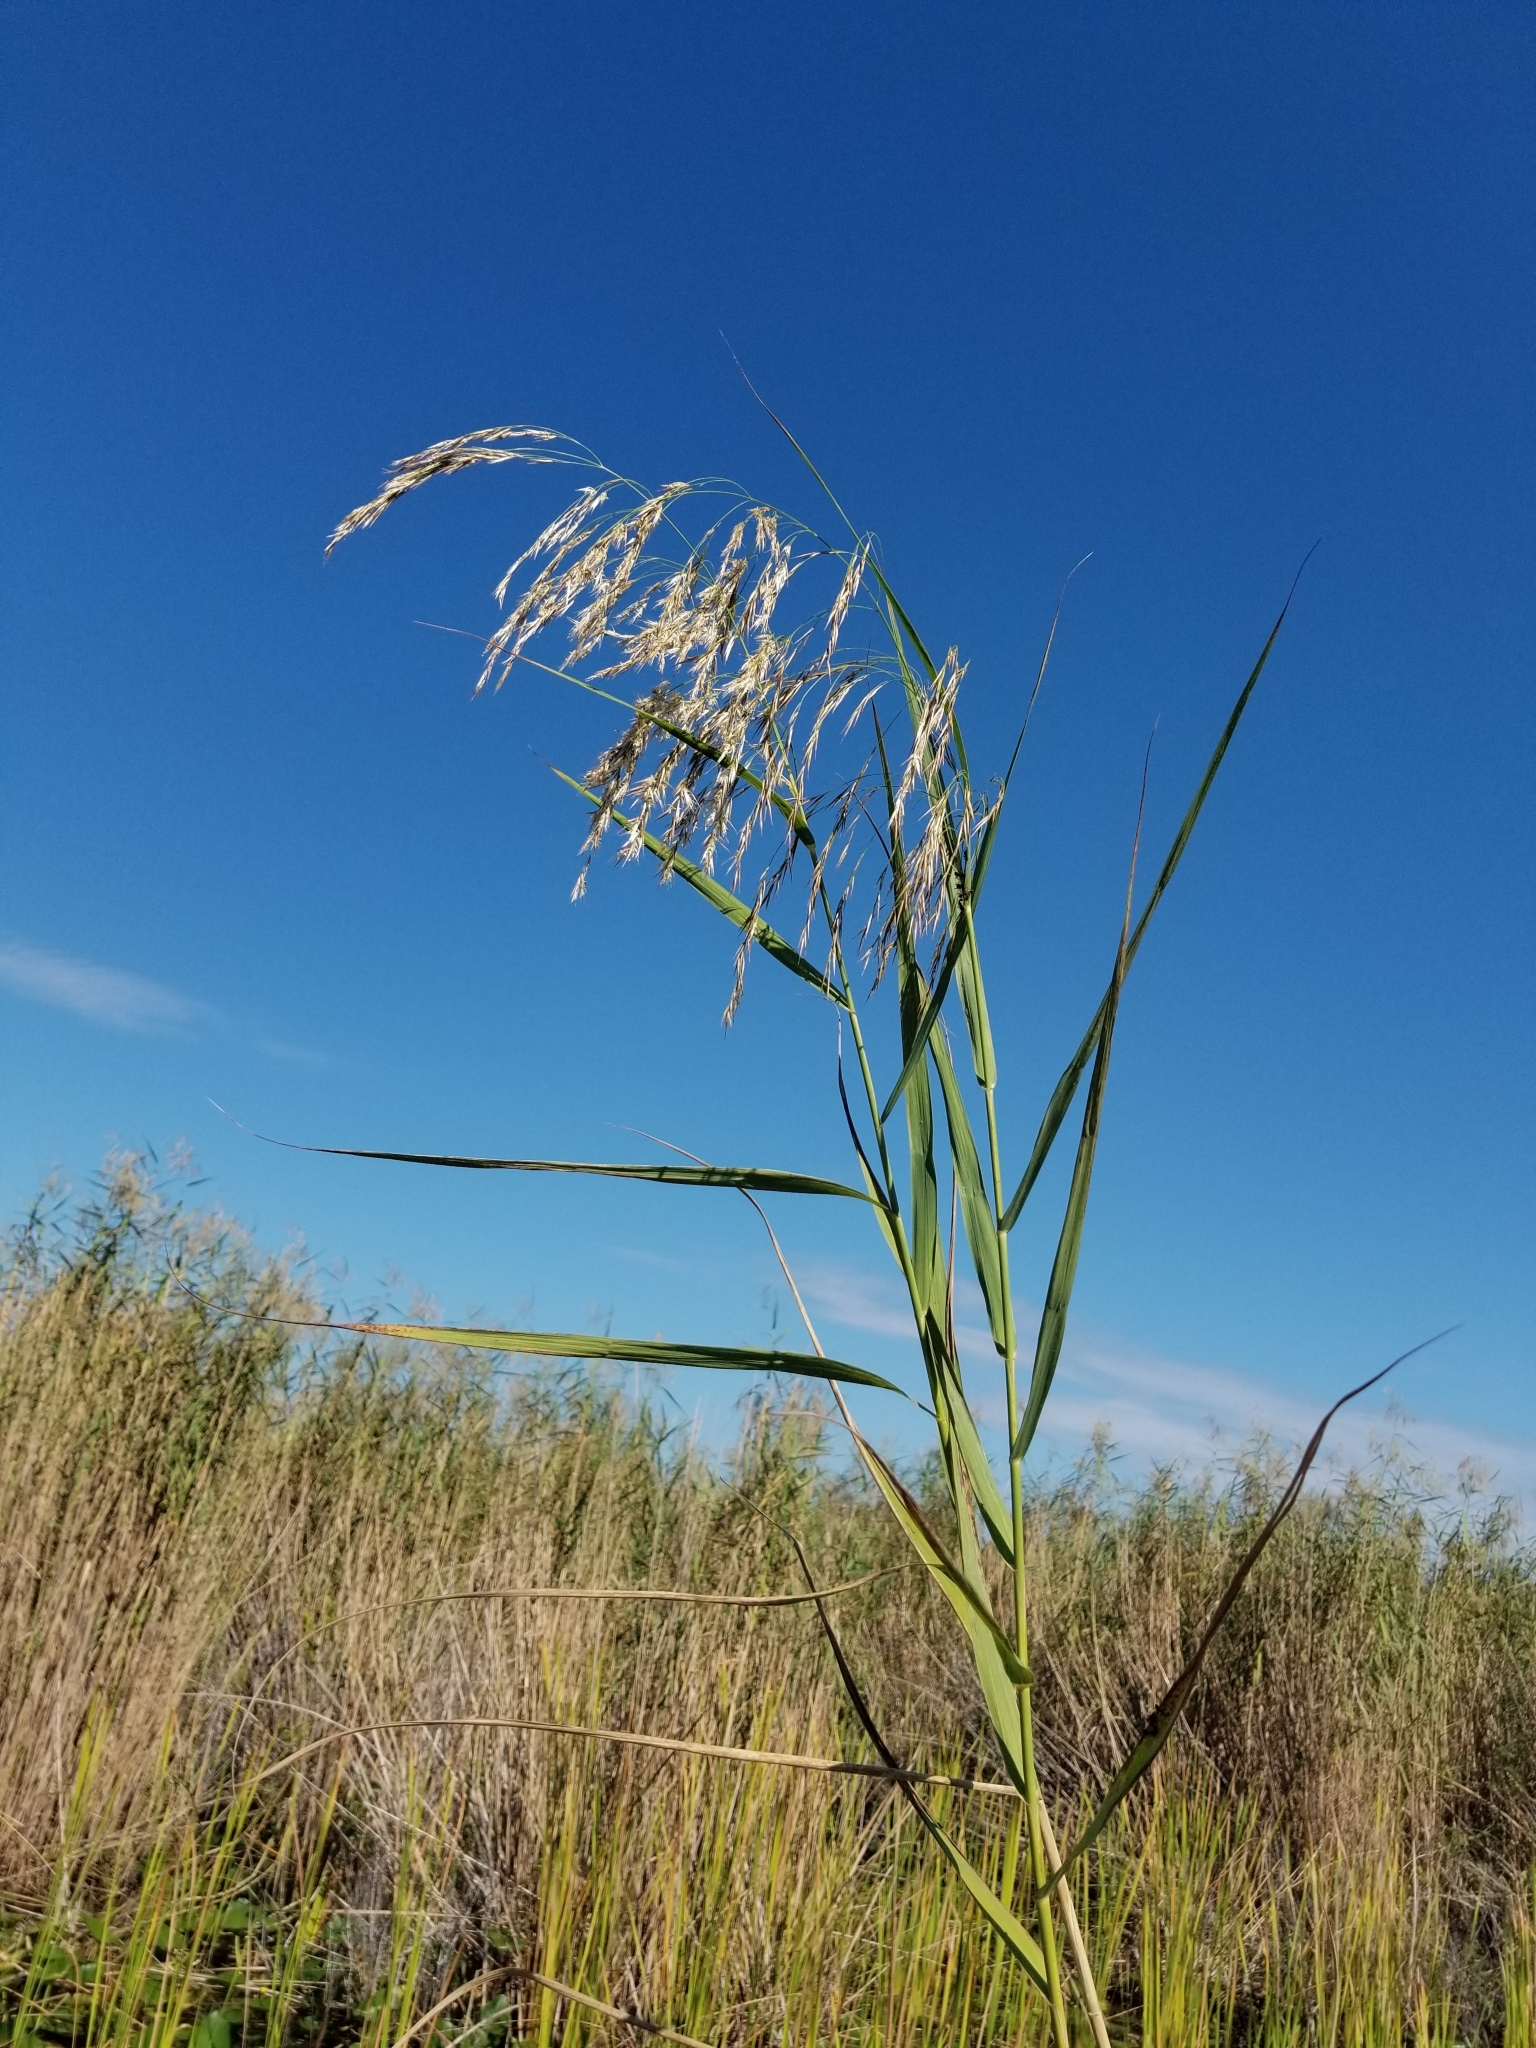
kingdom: Plantae
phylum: Tracheophyta
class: Liliopsida
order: Poales
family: Poaceae
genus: Phragmites
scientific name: Phragmites australis
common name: Common reed
